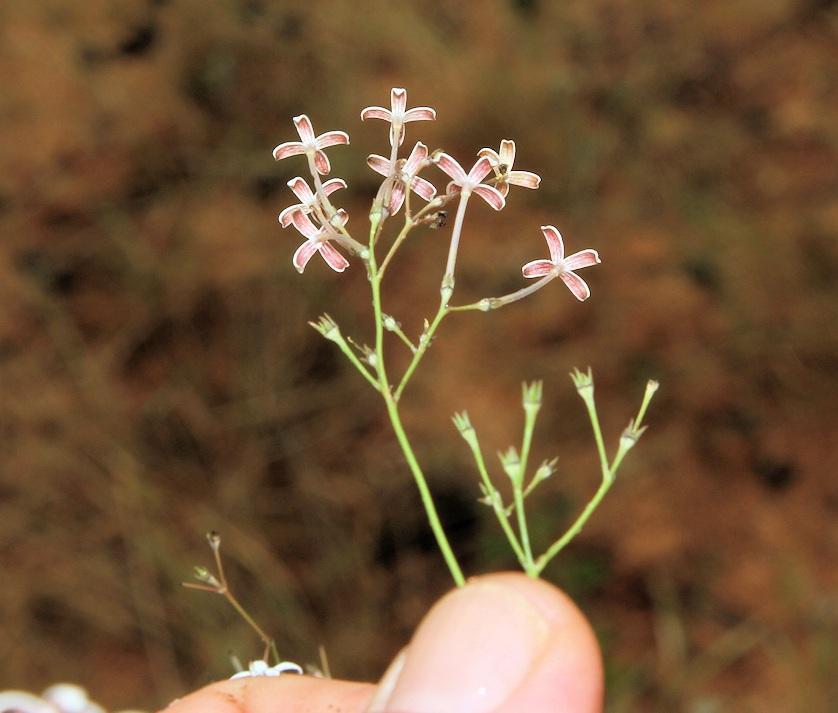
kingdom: Plantae
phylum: Tracheophyta
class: Magnoliopsida
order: Gentianales
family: Rubiaceae
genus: Kohautia
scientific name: Kohautia amatymbica
